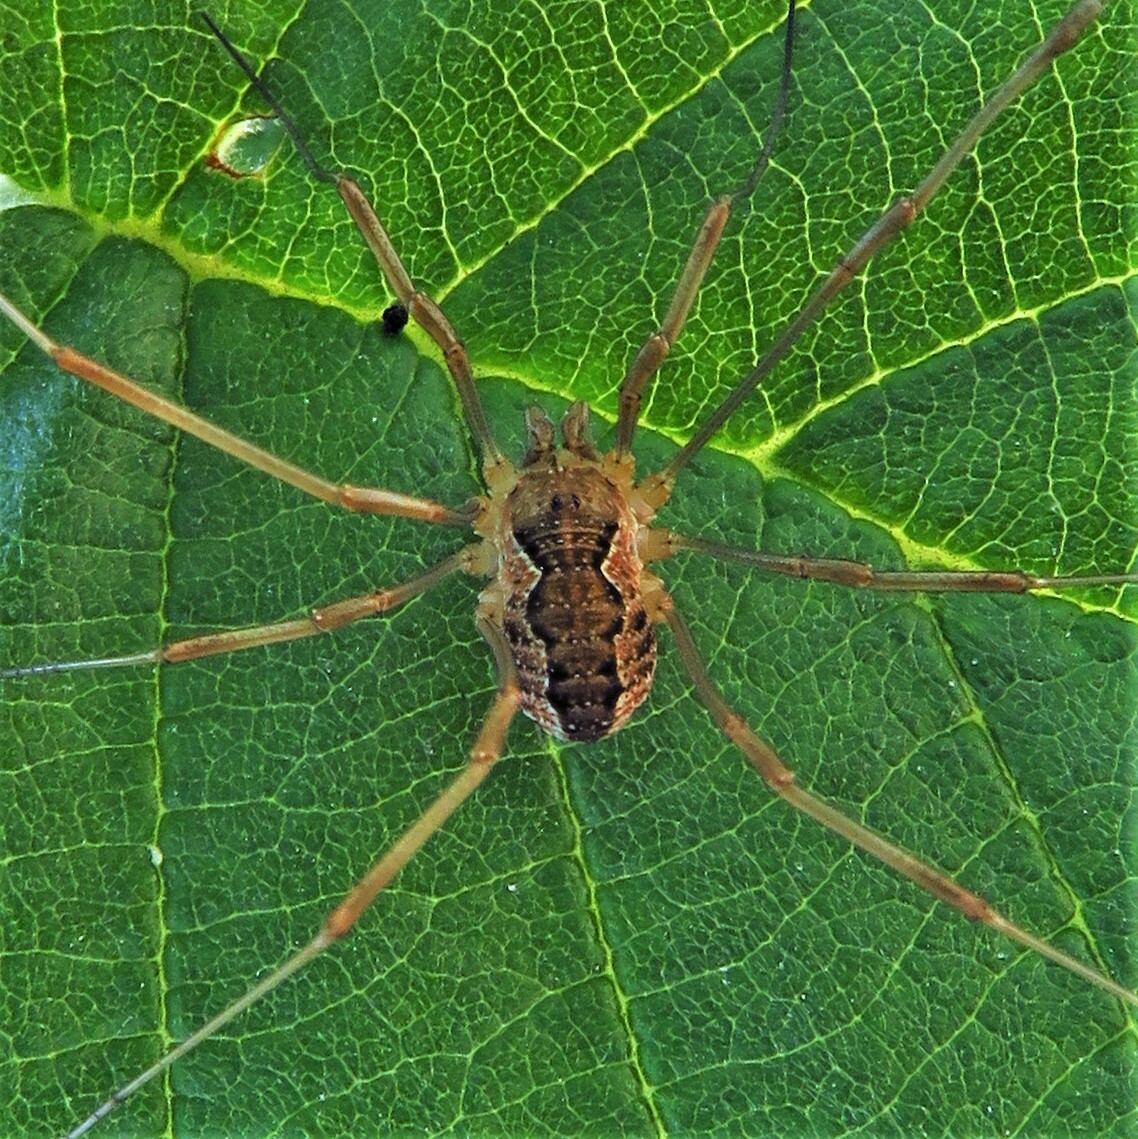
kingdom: Animalia
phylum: Arthropoda
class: Arachnida
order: Opiliones
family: Phalangiidae
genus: Mitopus
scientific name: Mitopus morio
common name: Saddleback harvestman
